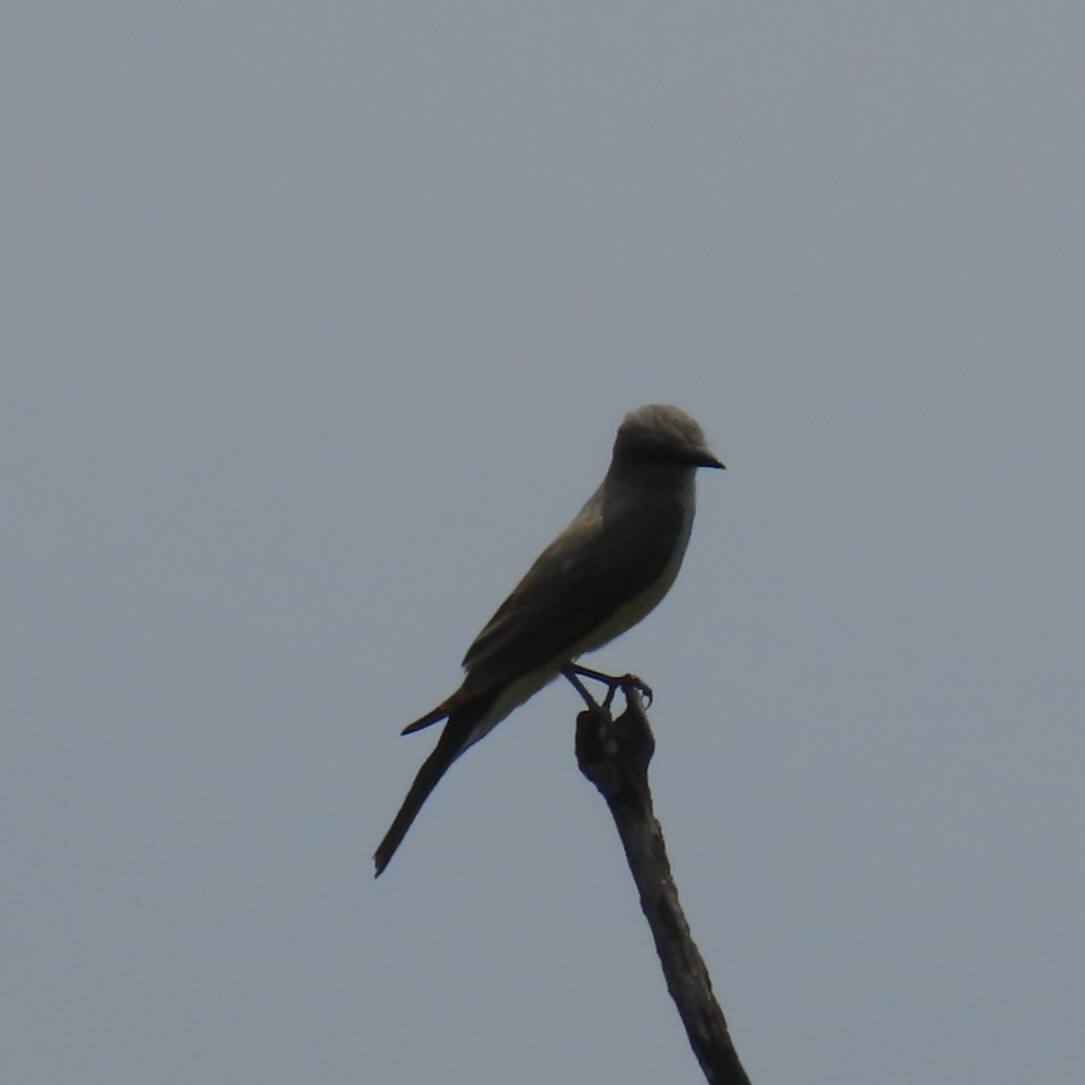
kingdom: Animalia
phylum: Chordata
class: Aves
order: Passeriformes
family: Tyrannidae
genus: Tyrannus
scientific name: Tyrannus verticalis
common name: Western kingbird
